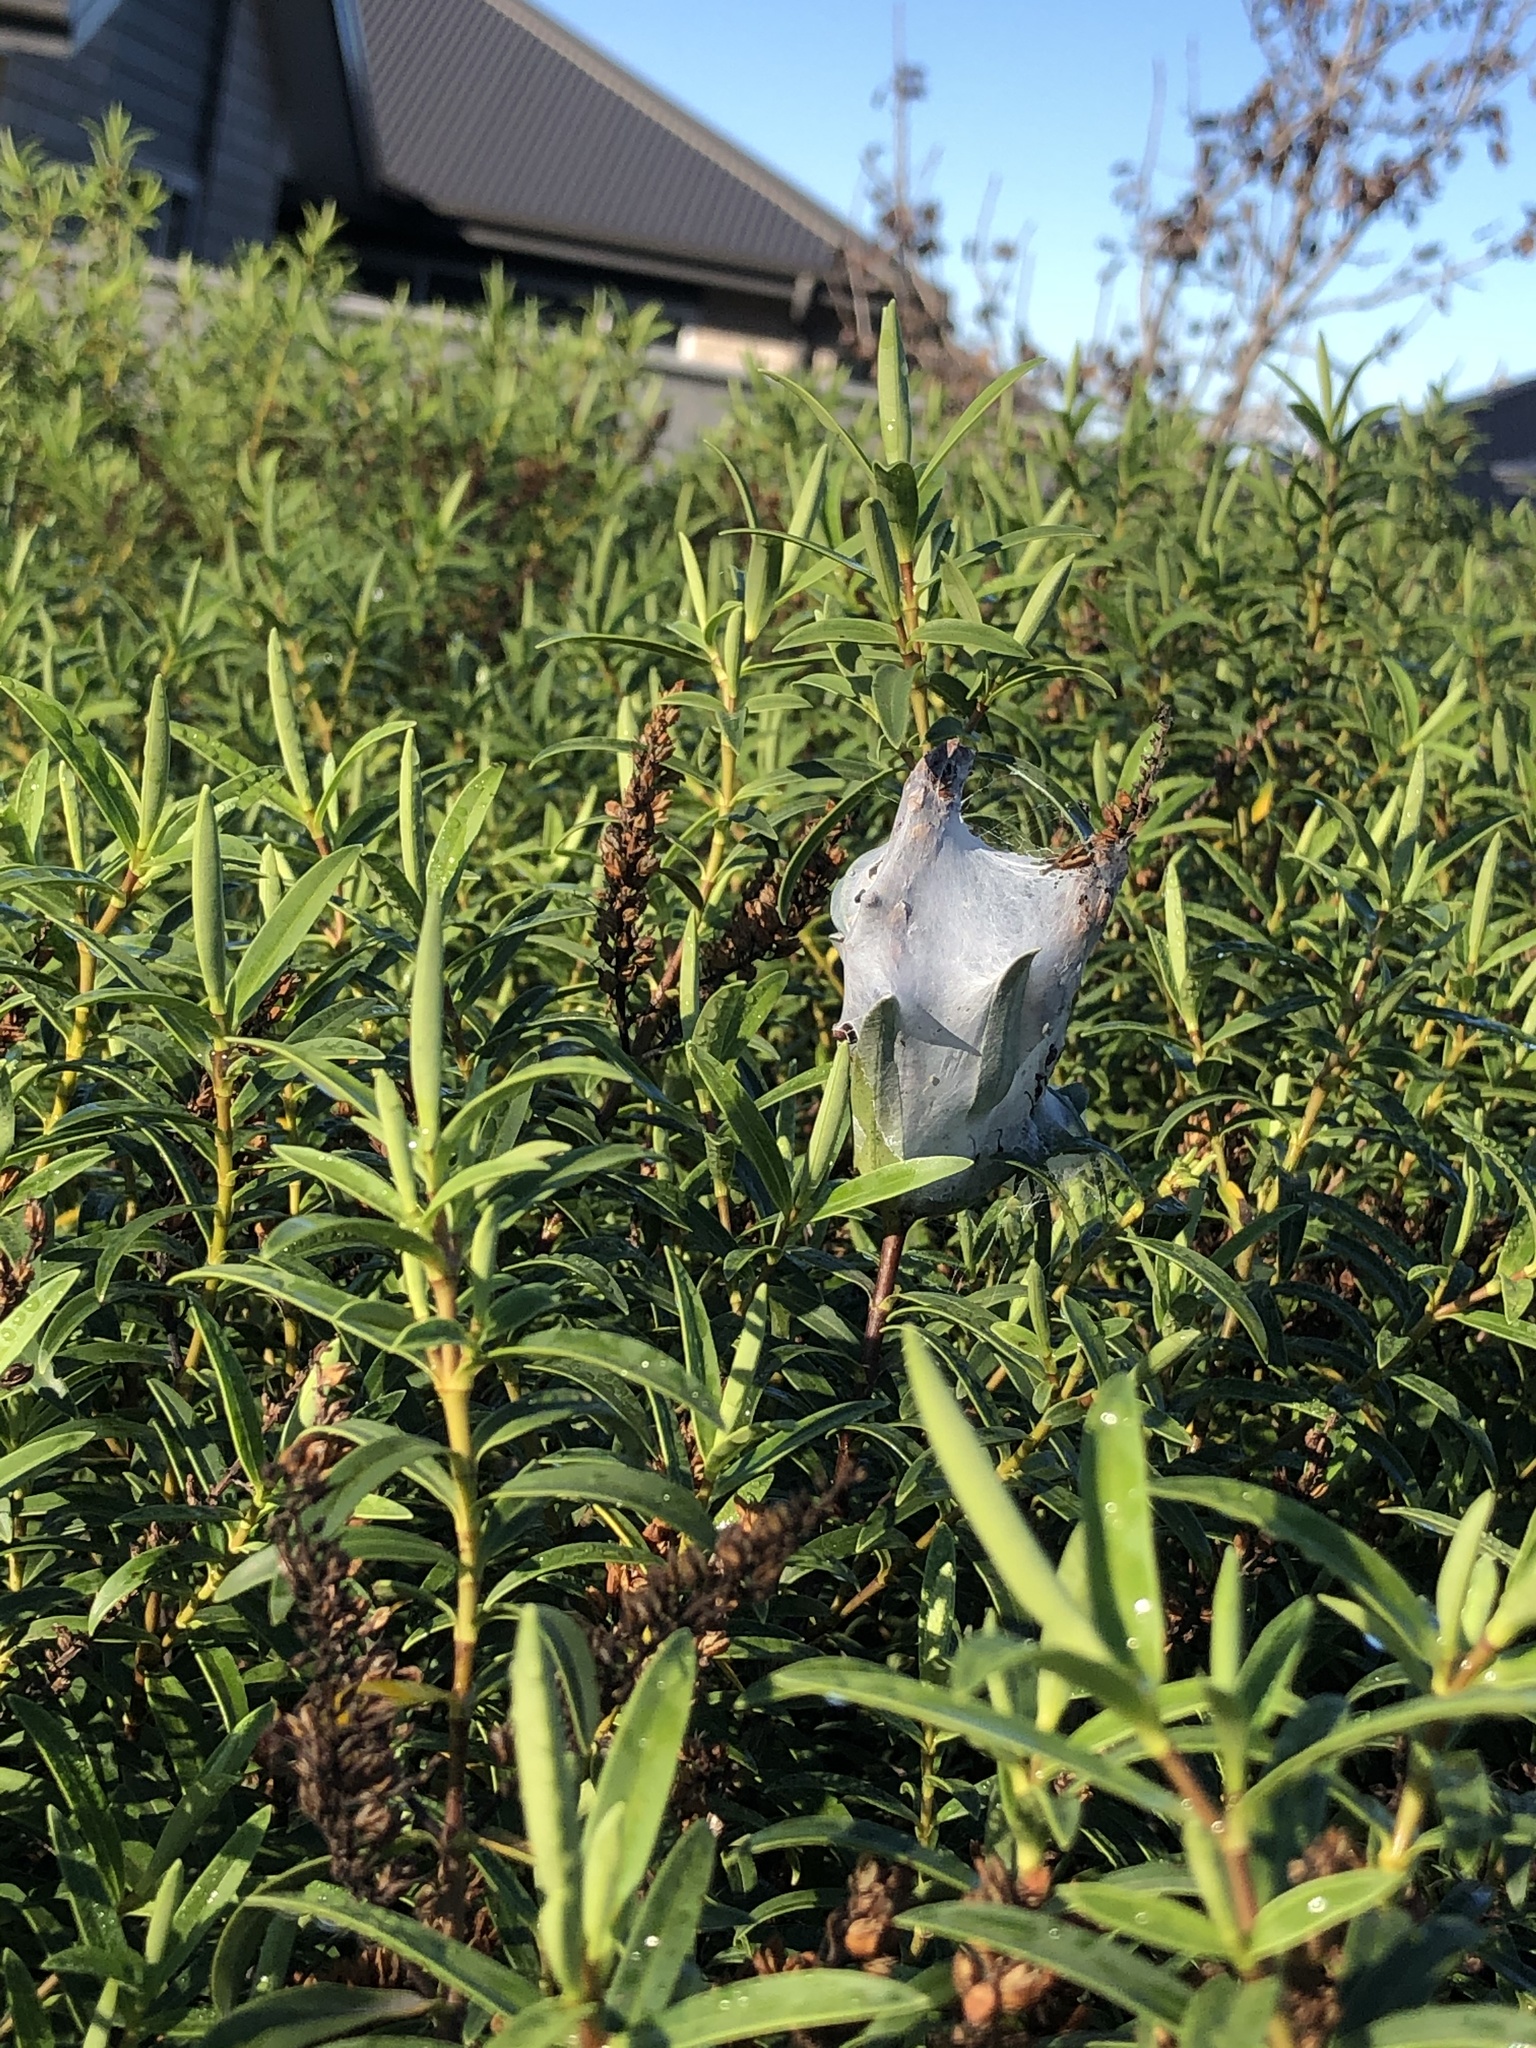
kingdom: Animalia
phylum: Arthropoda
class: Arachnida
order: Araneae
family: Pisauridae
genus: Dolomedes
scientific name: Dolomedes minor
